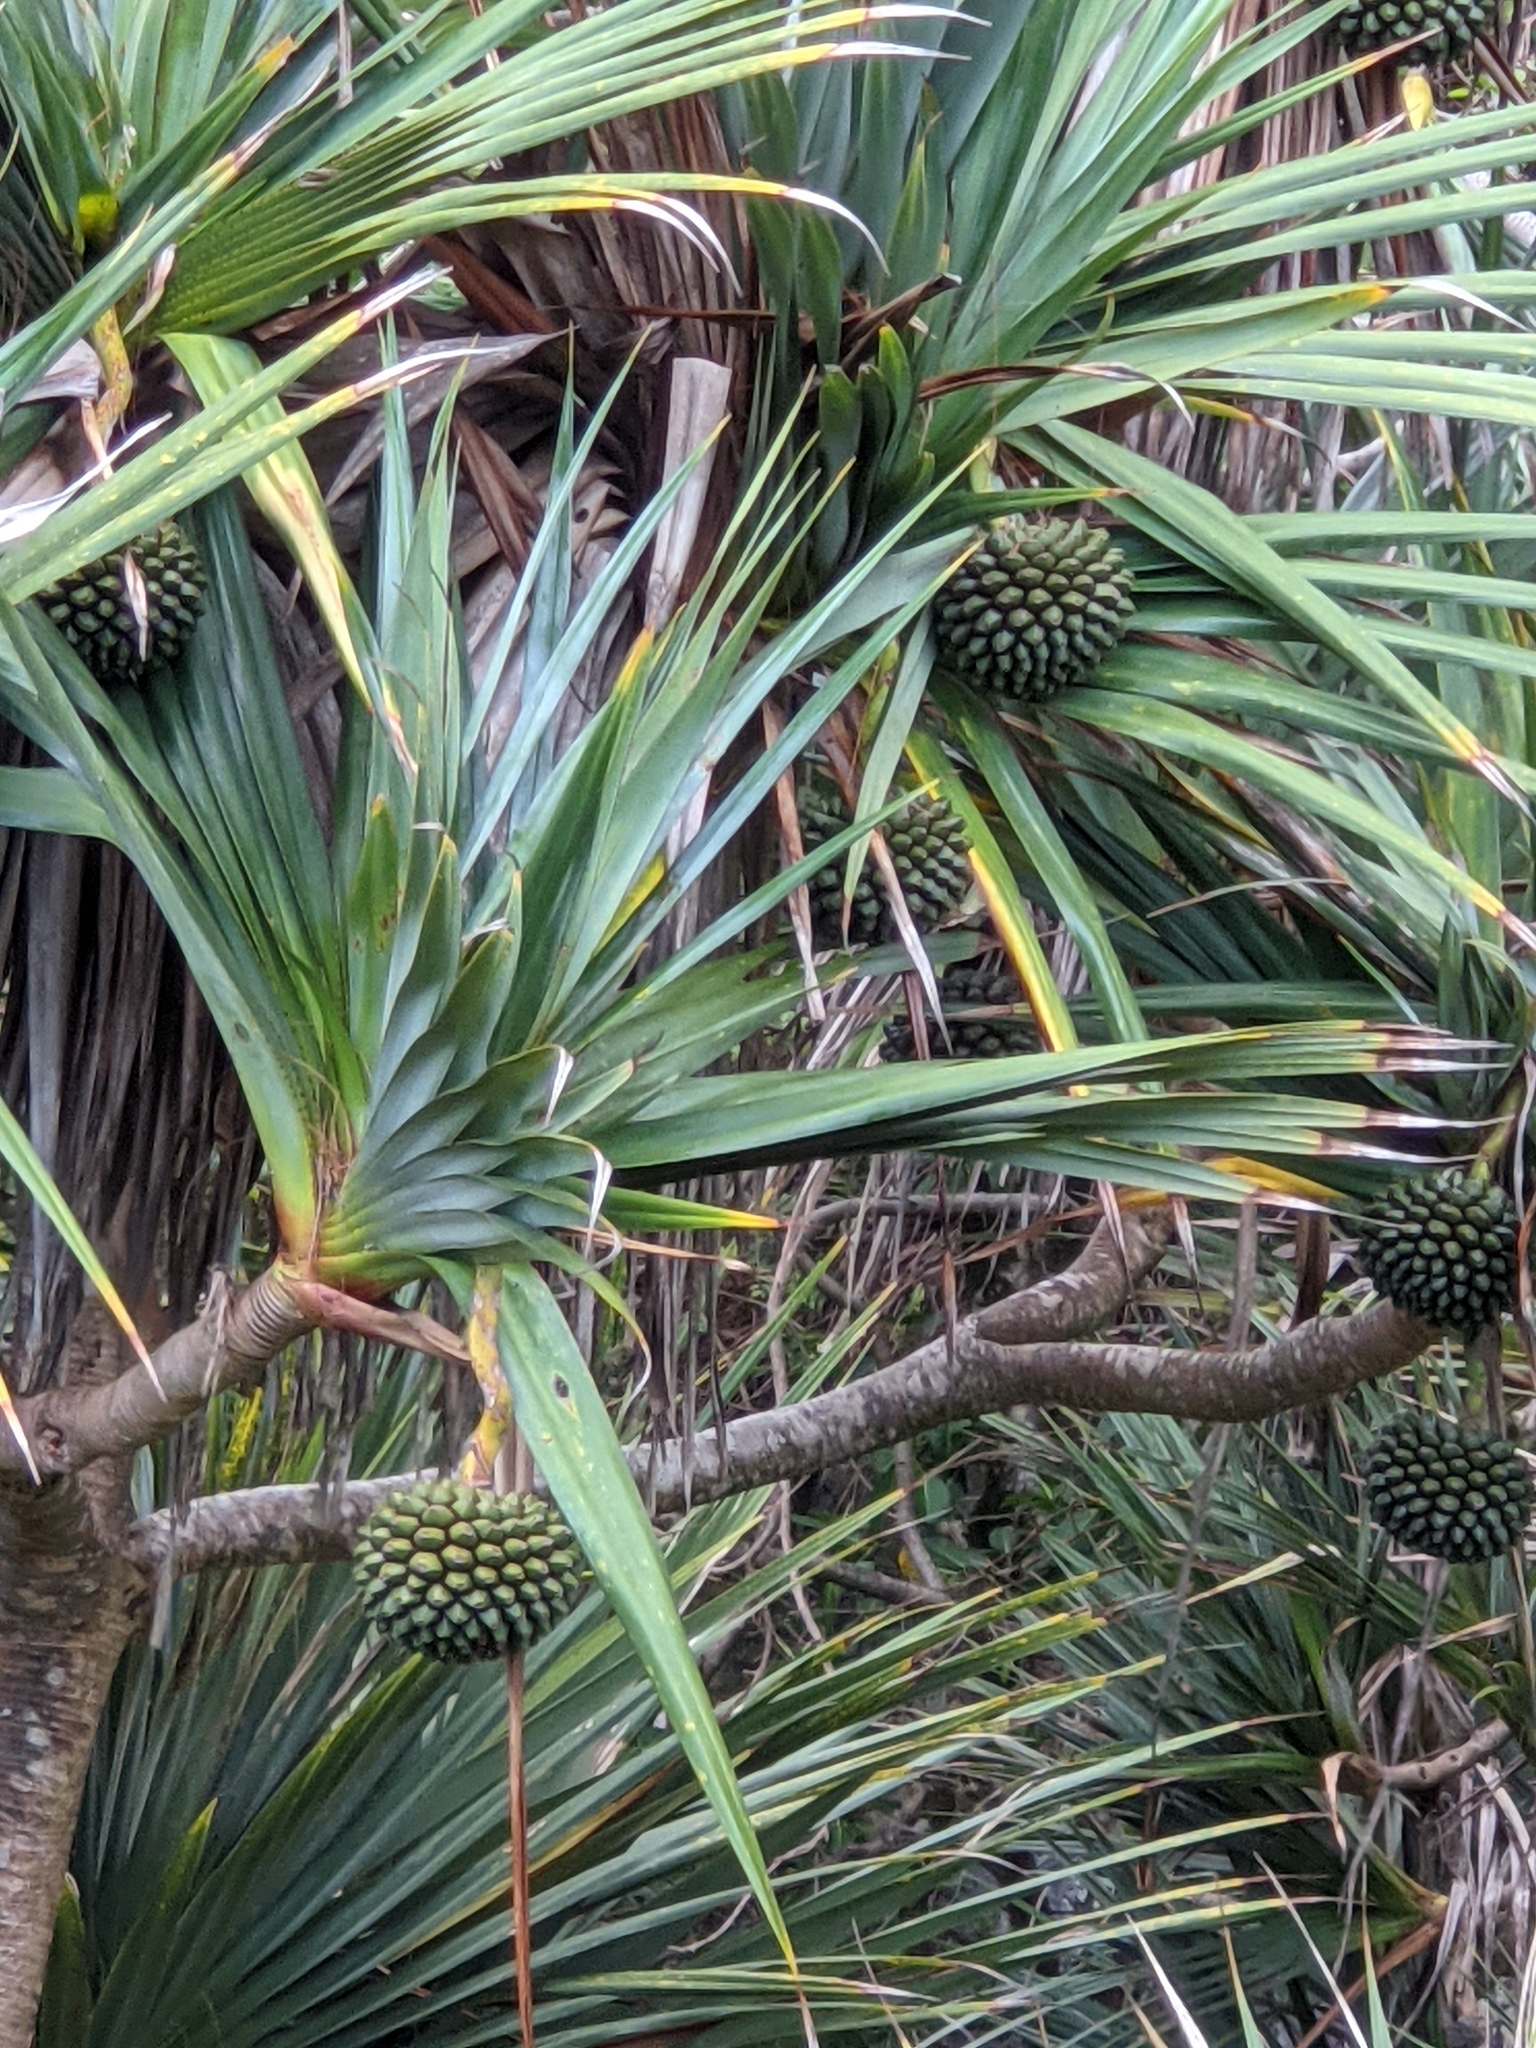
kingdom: Plantae
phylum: Tracheophyta
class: Liliopsida
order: Pandanales
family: Pandanaceae
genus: Pandanus
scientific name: Pandanus utilis
